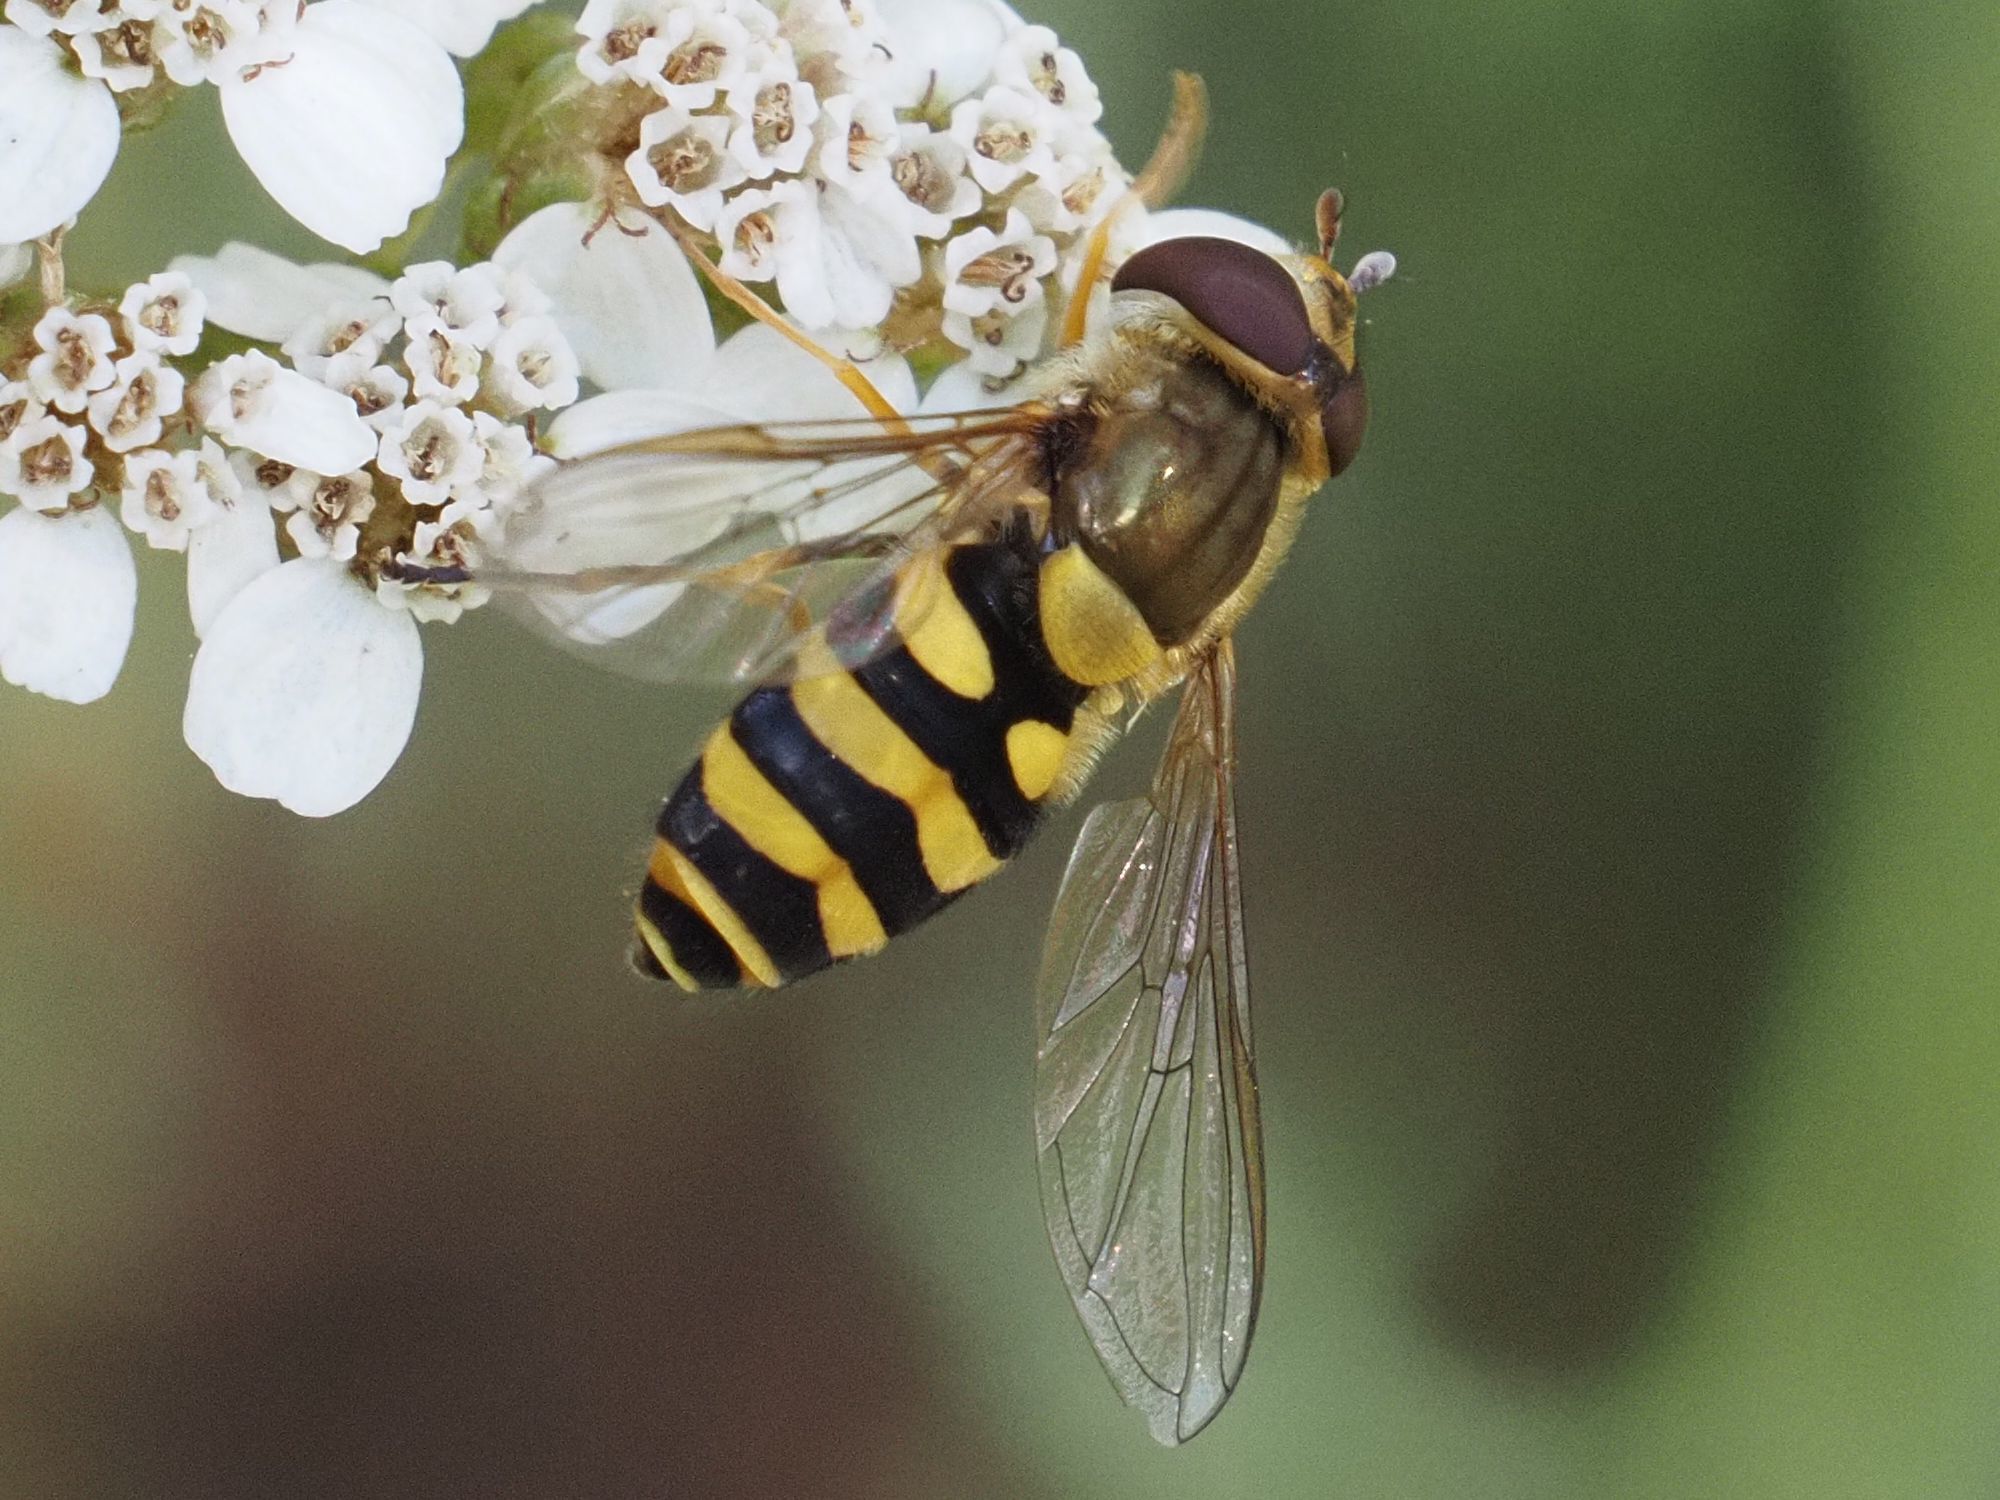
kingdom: Animalia
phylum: Arthropoda
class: Insecta
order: Diptera
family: Syrphidae
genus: Syrphus
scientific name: Syrphus vitripennis
